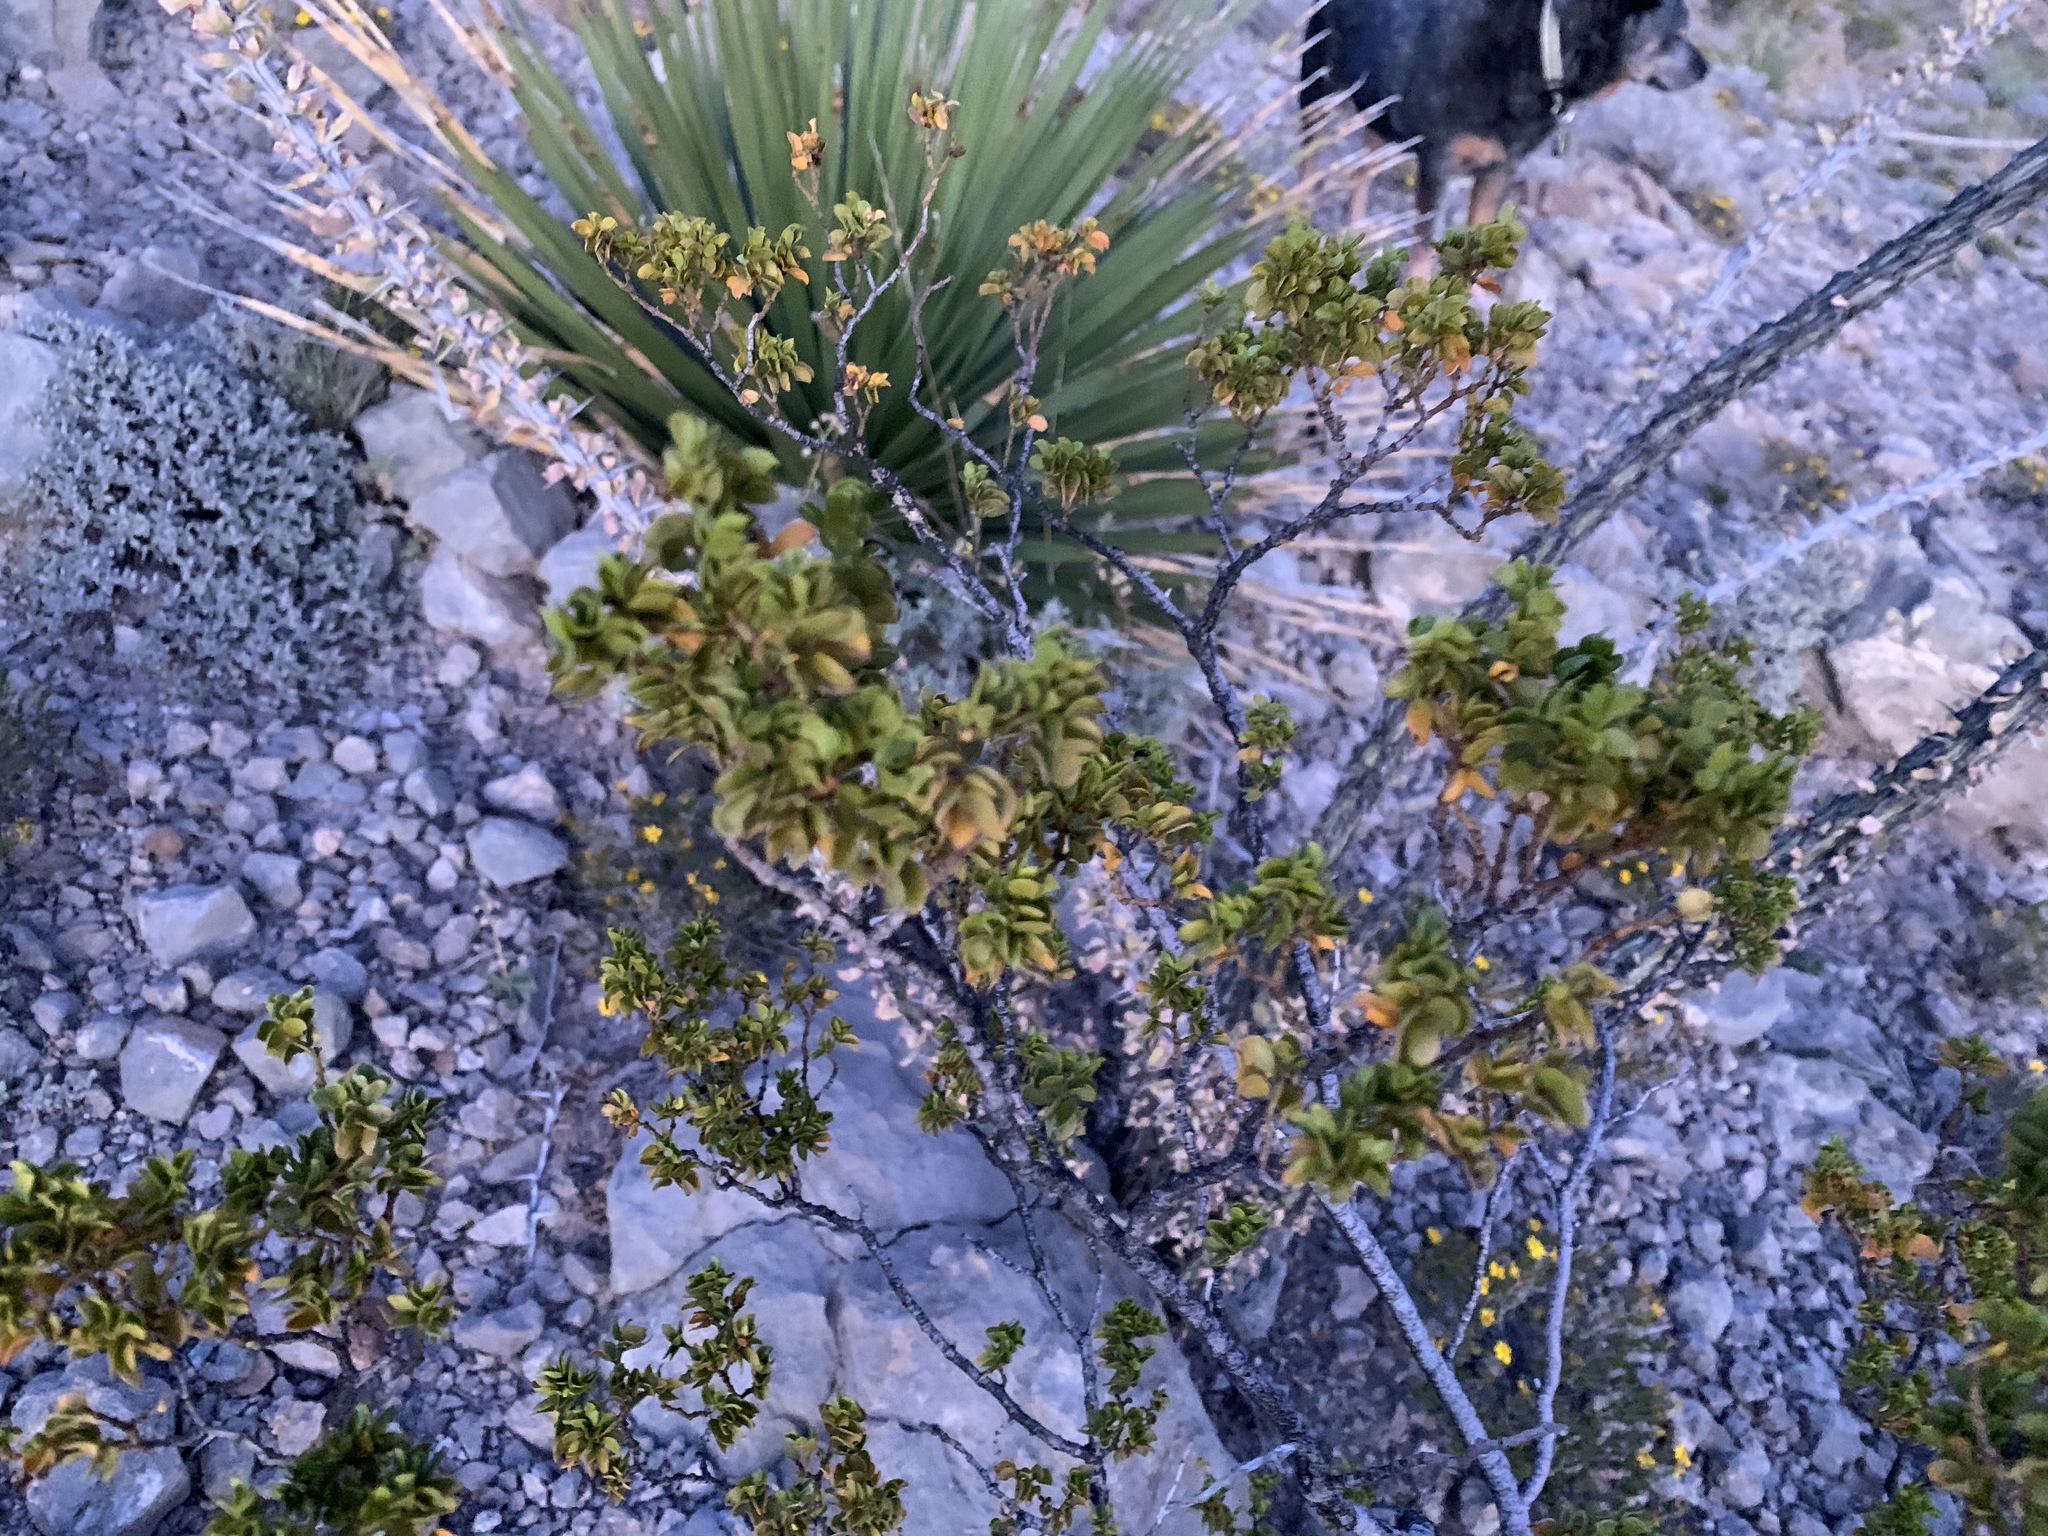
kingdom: Plantae
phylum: Tracheophyta
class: Magnoliopsida
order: Zygophyllales
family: Zygophyllaceae
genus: Larrea
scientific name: Larrea tridentata
